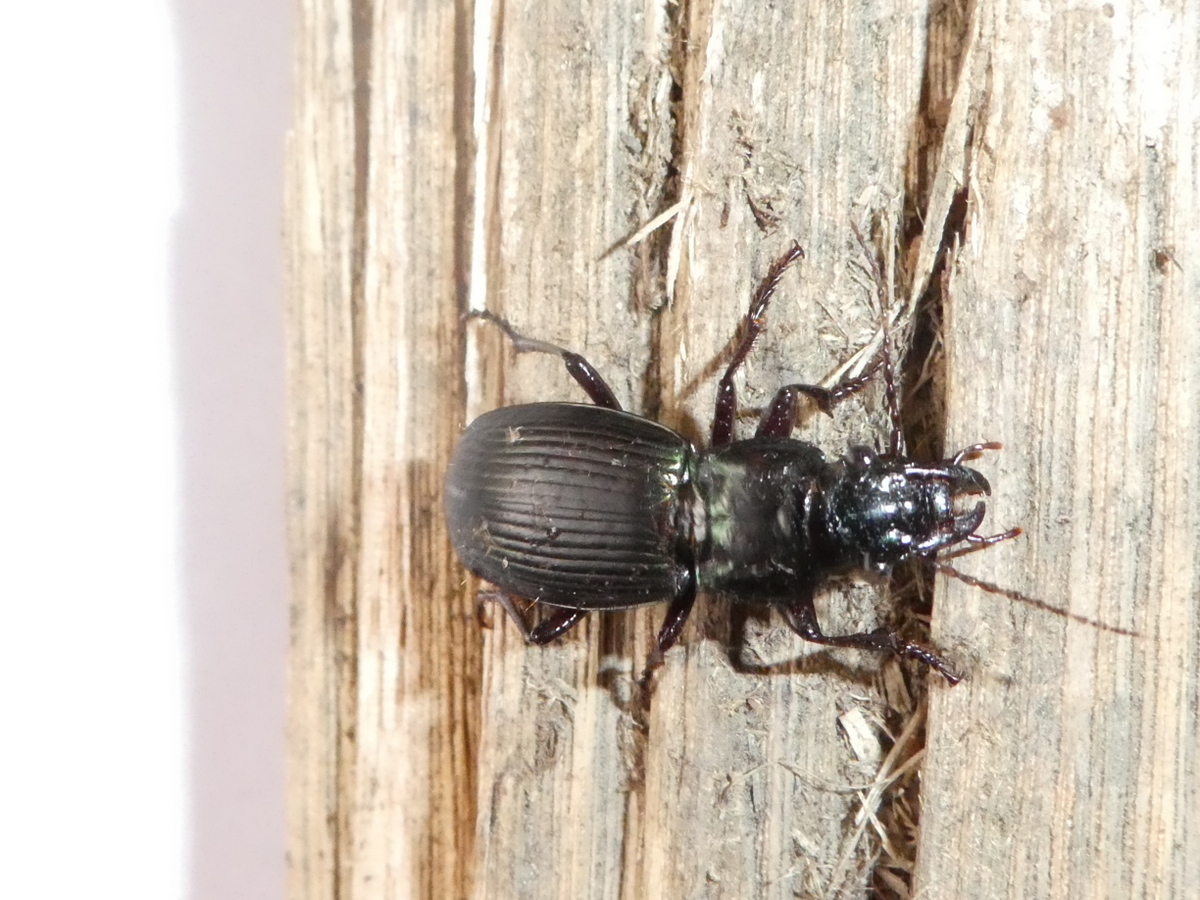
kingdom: Animalia
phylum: Arthropoda
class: Insecta
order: Coleoptera
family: Carabidae
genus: Megadromus
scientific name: Megadromus capito
